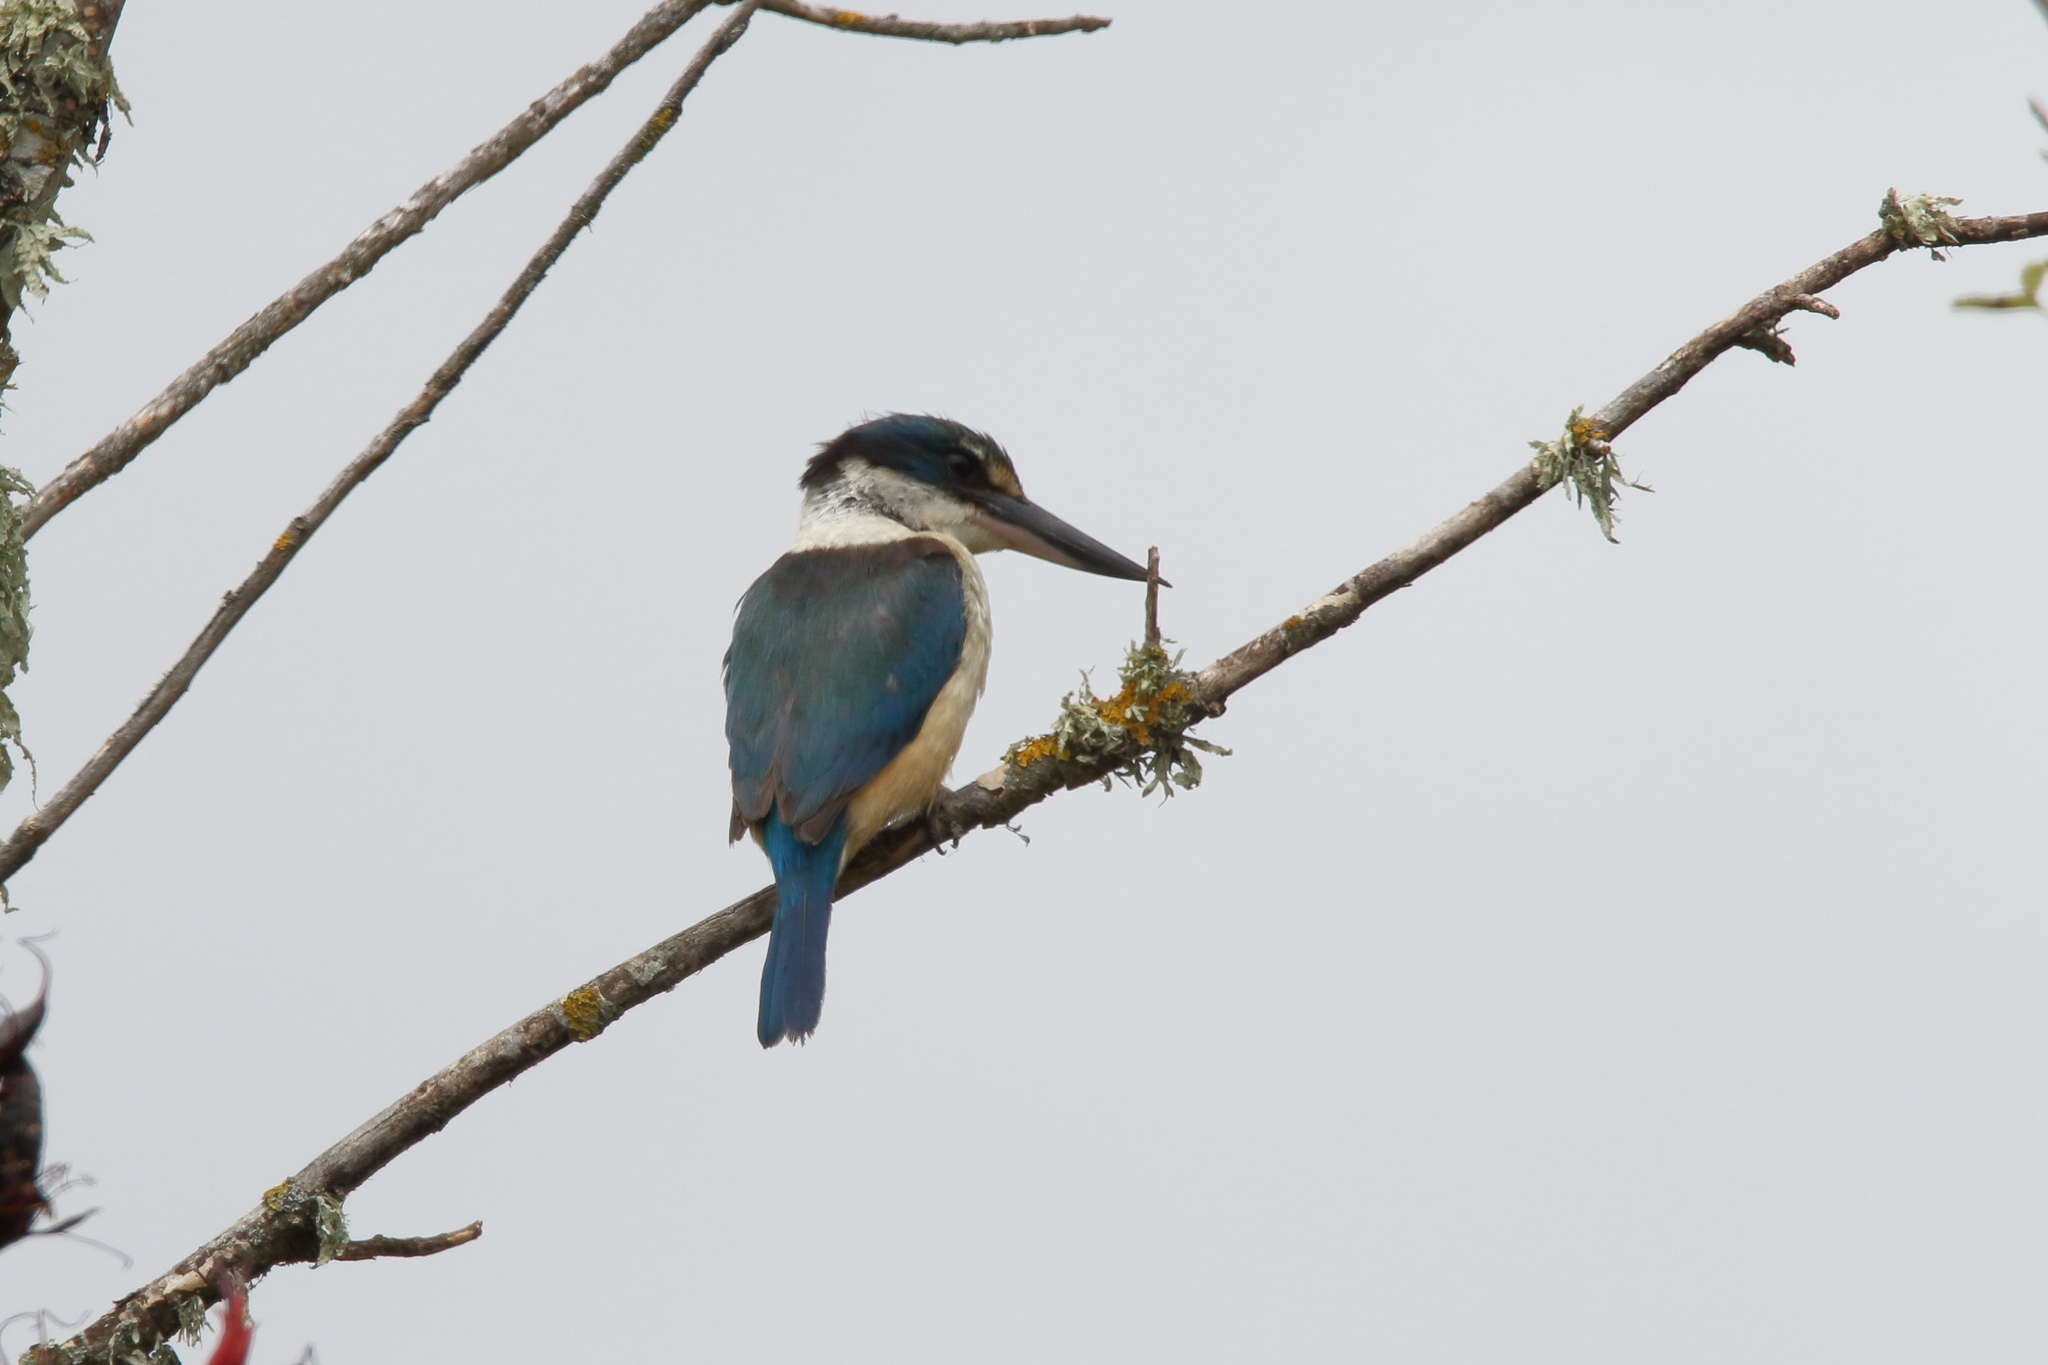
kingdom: Animalia
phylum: Chordata
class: Aves
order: Coraciiformes
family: Alcedinidae
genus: Todiramphus
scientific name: Todiramphus sanctus
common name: Sacred kingfisher
